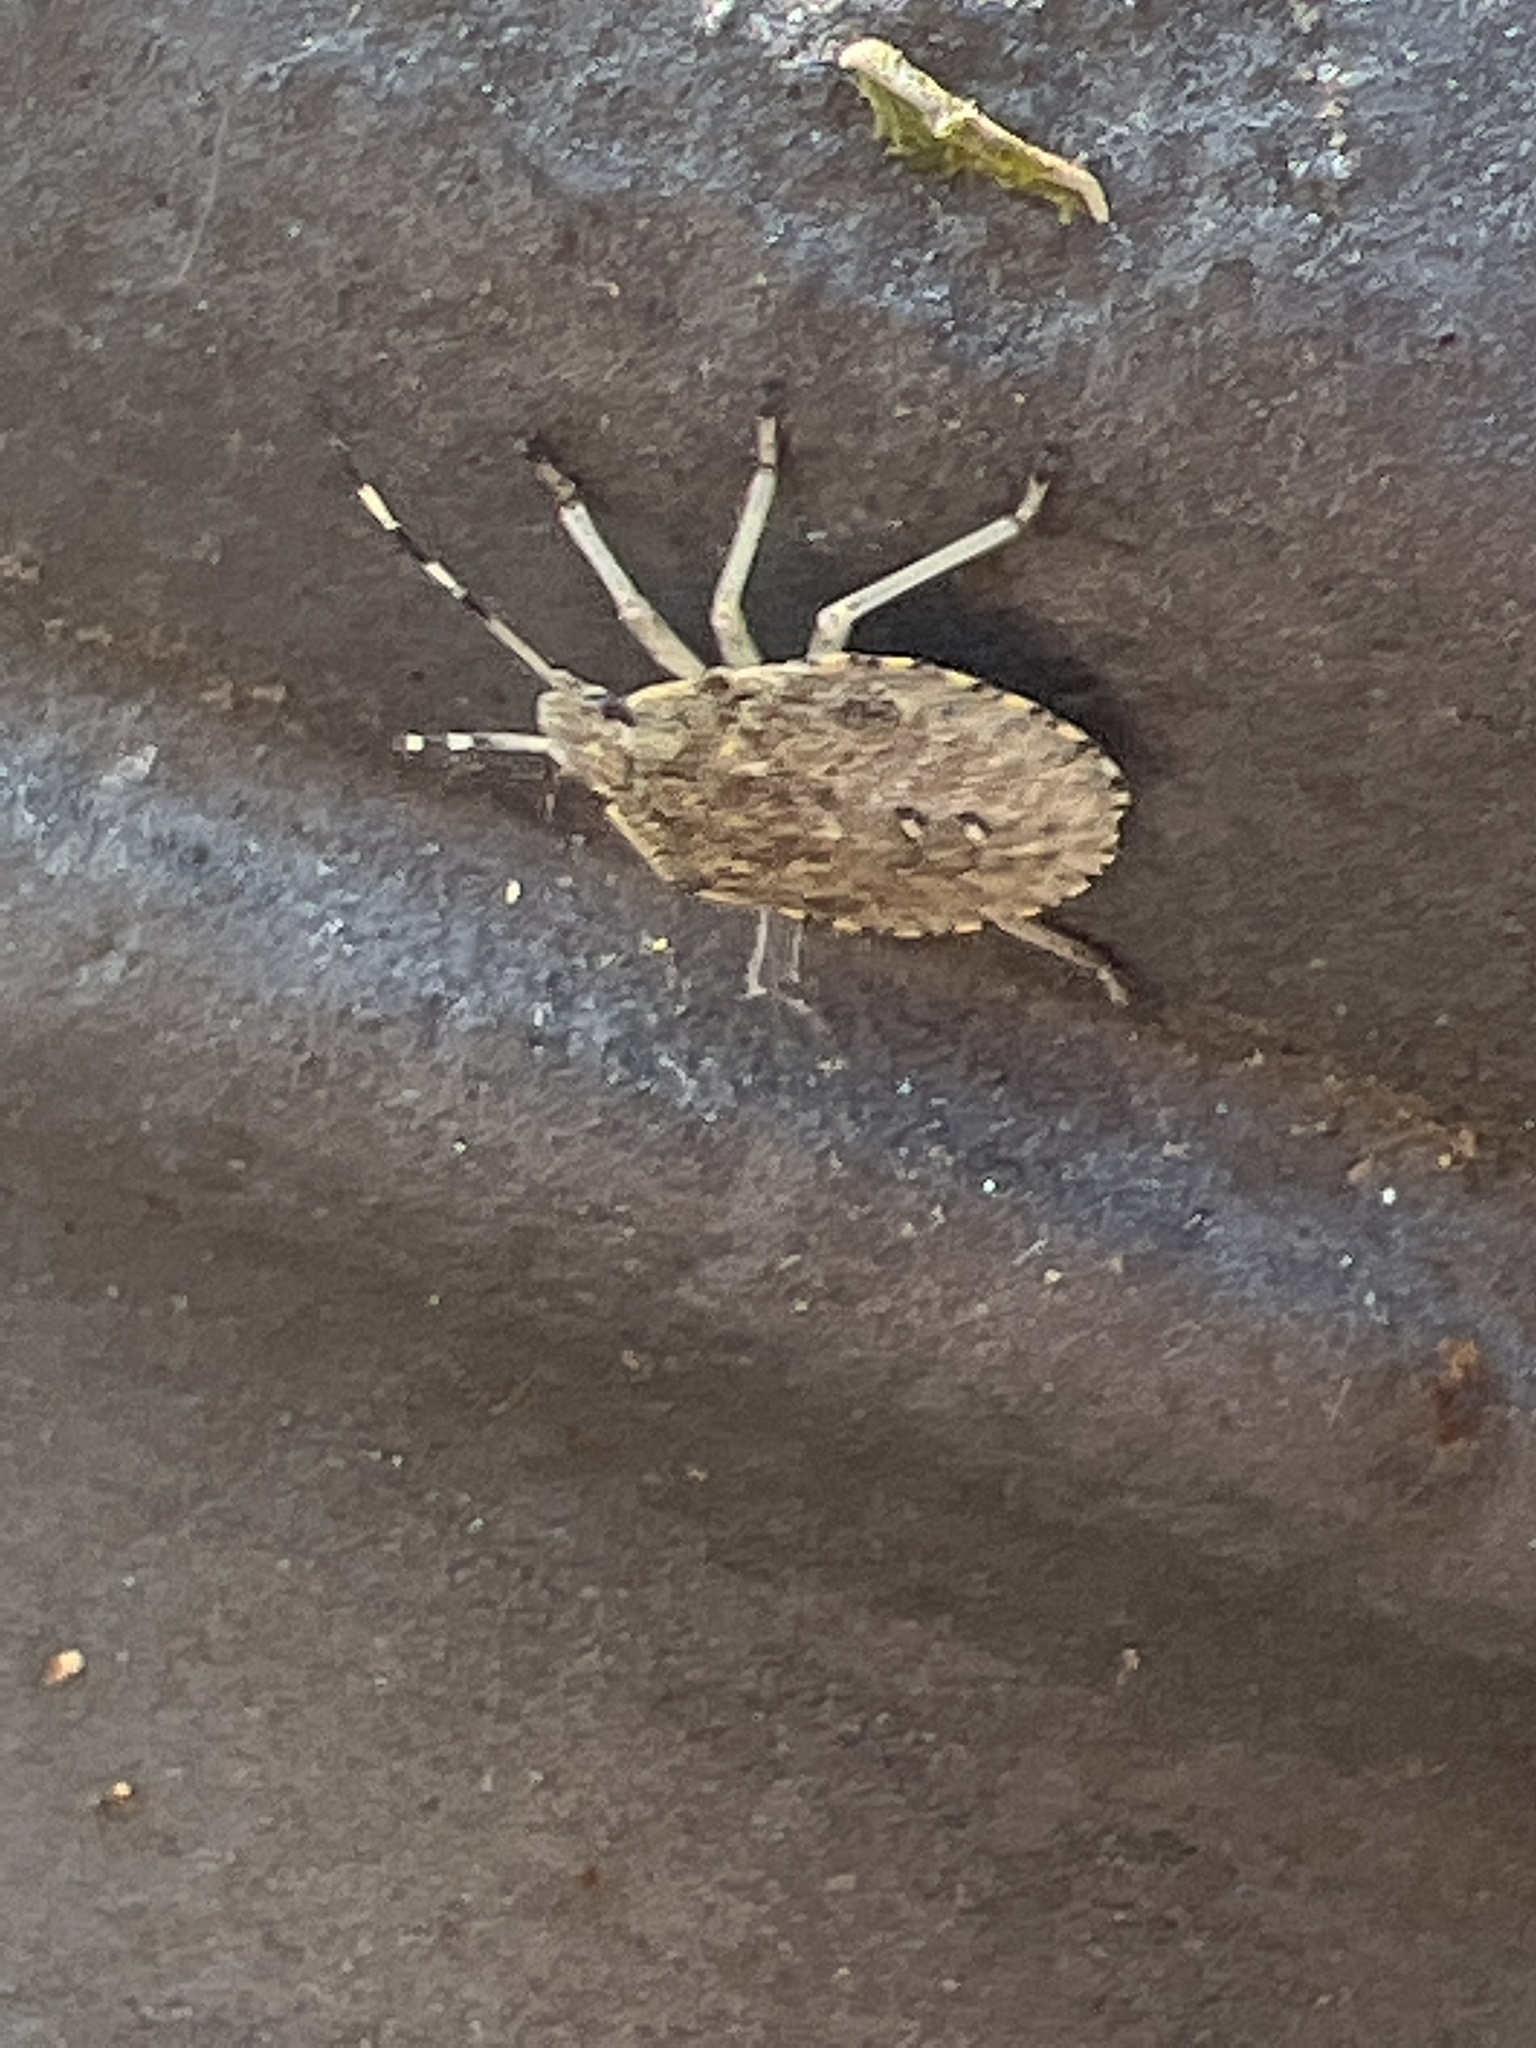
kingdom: Animalia
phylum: Arthropoda
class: Insecta
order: Hemiptera
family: Pentatomidae
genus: Rhaphigaster
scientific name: Rhaphigaster nebulosa
